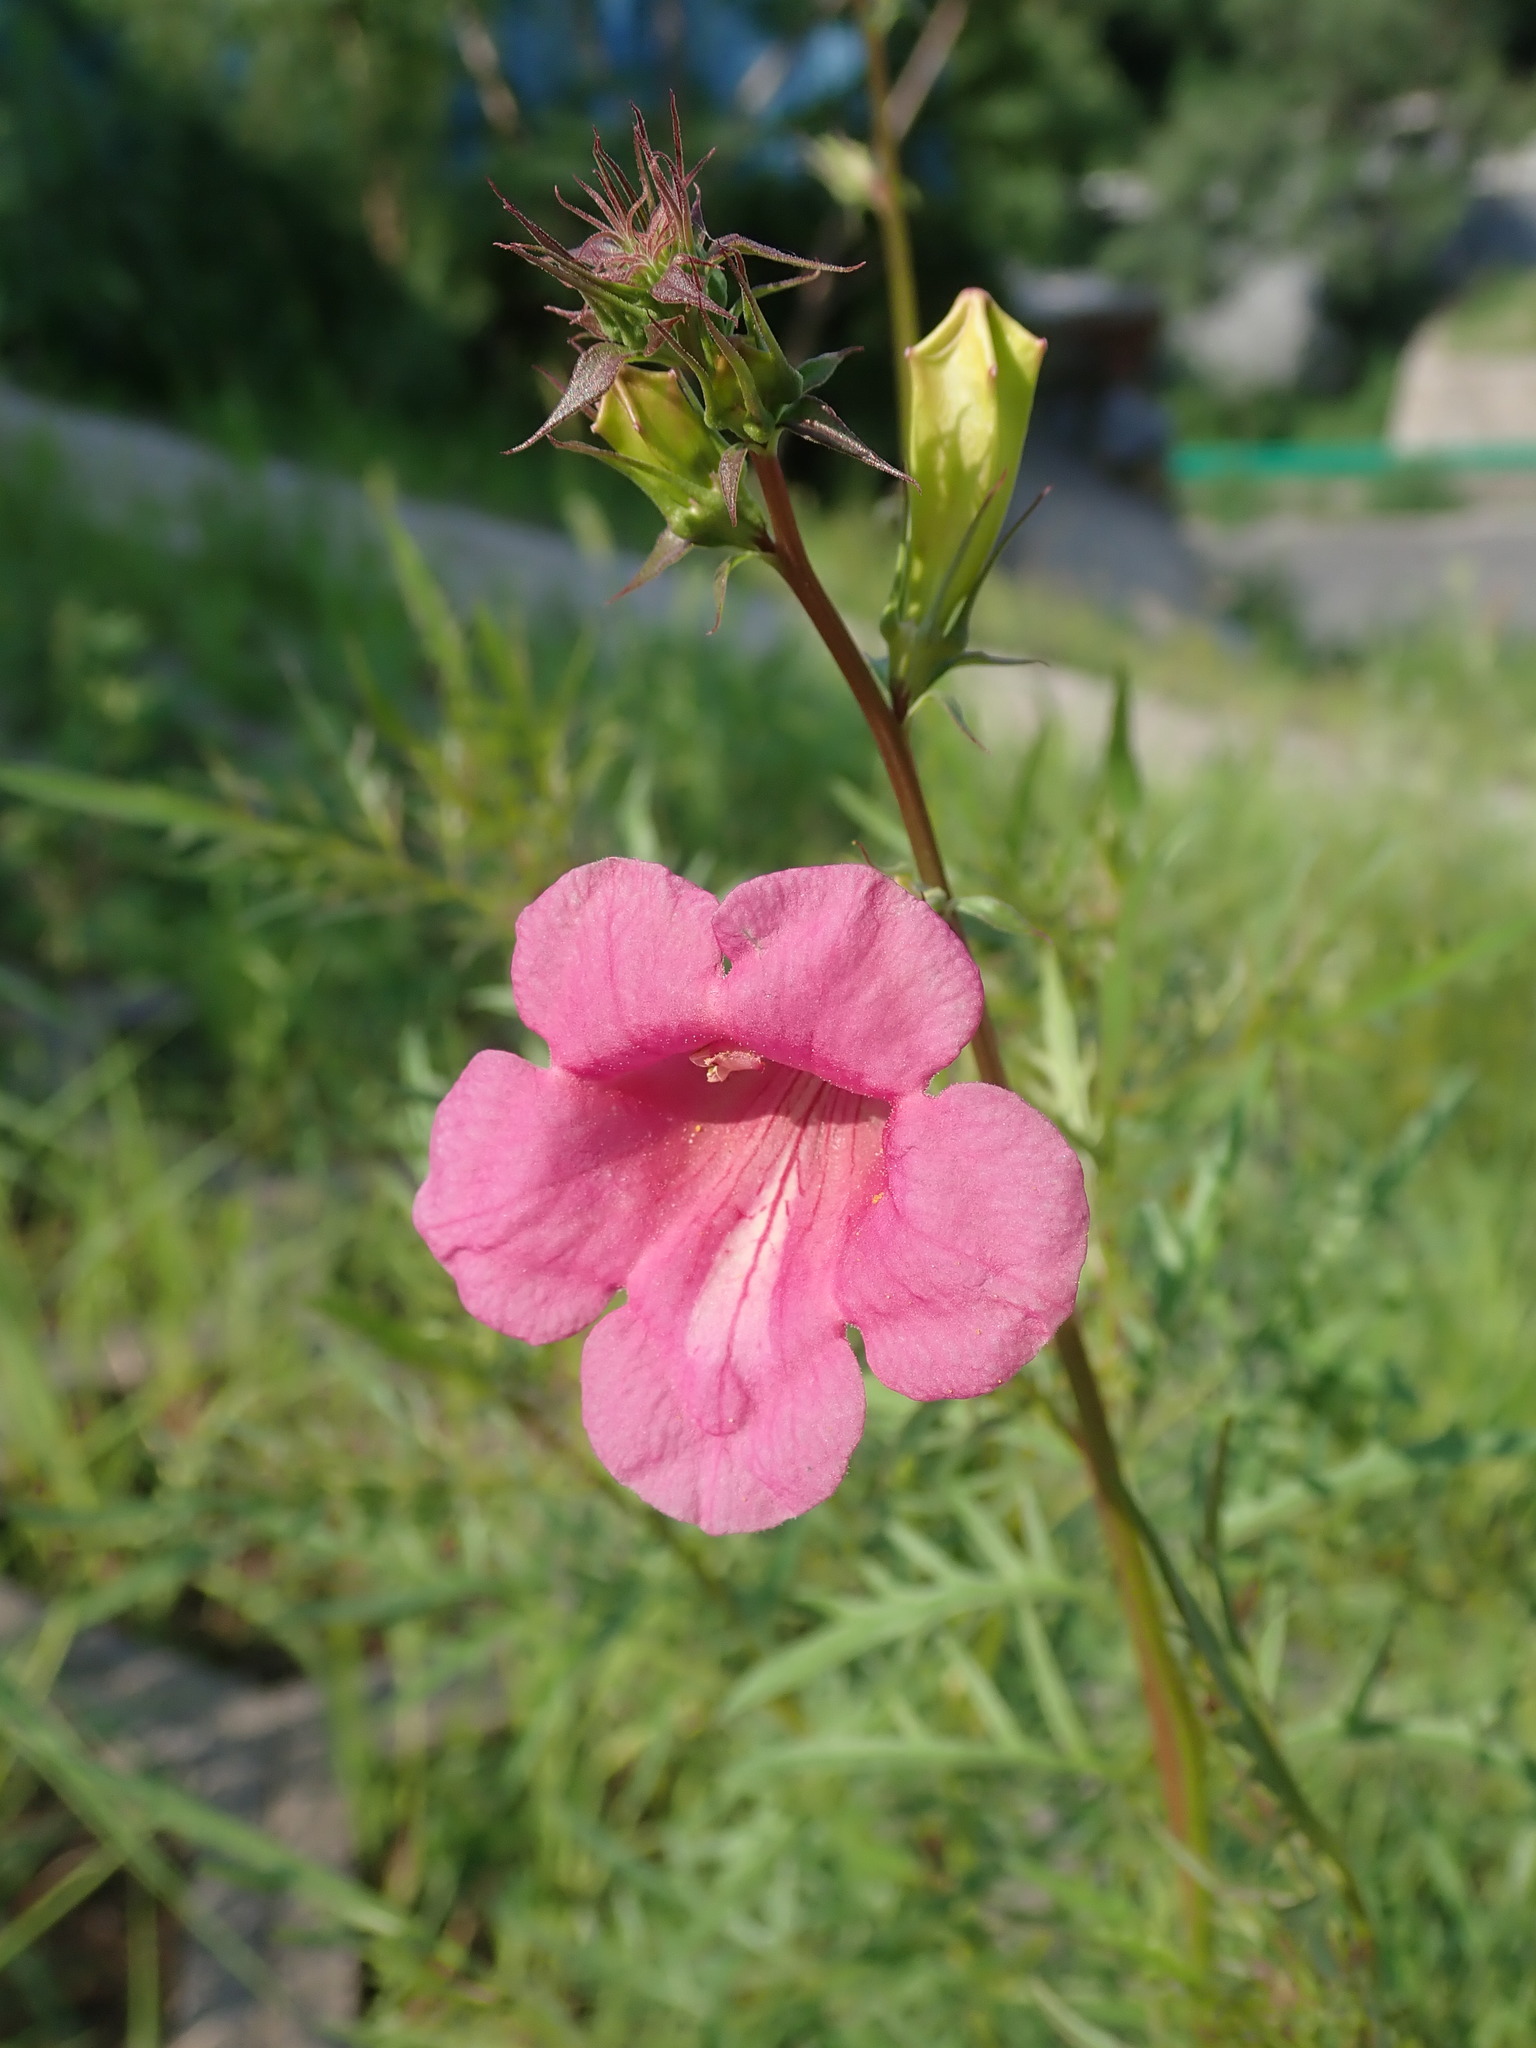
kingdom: Plantae
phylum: Tracheophyta
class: Magnoliopsida
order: Lamiales
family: Bignoniaceae
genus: Incarvillea
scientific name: Incarvillea sinensis
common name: Trumpet-flower
